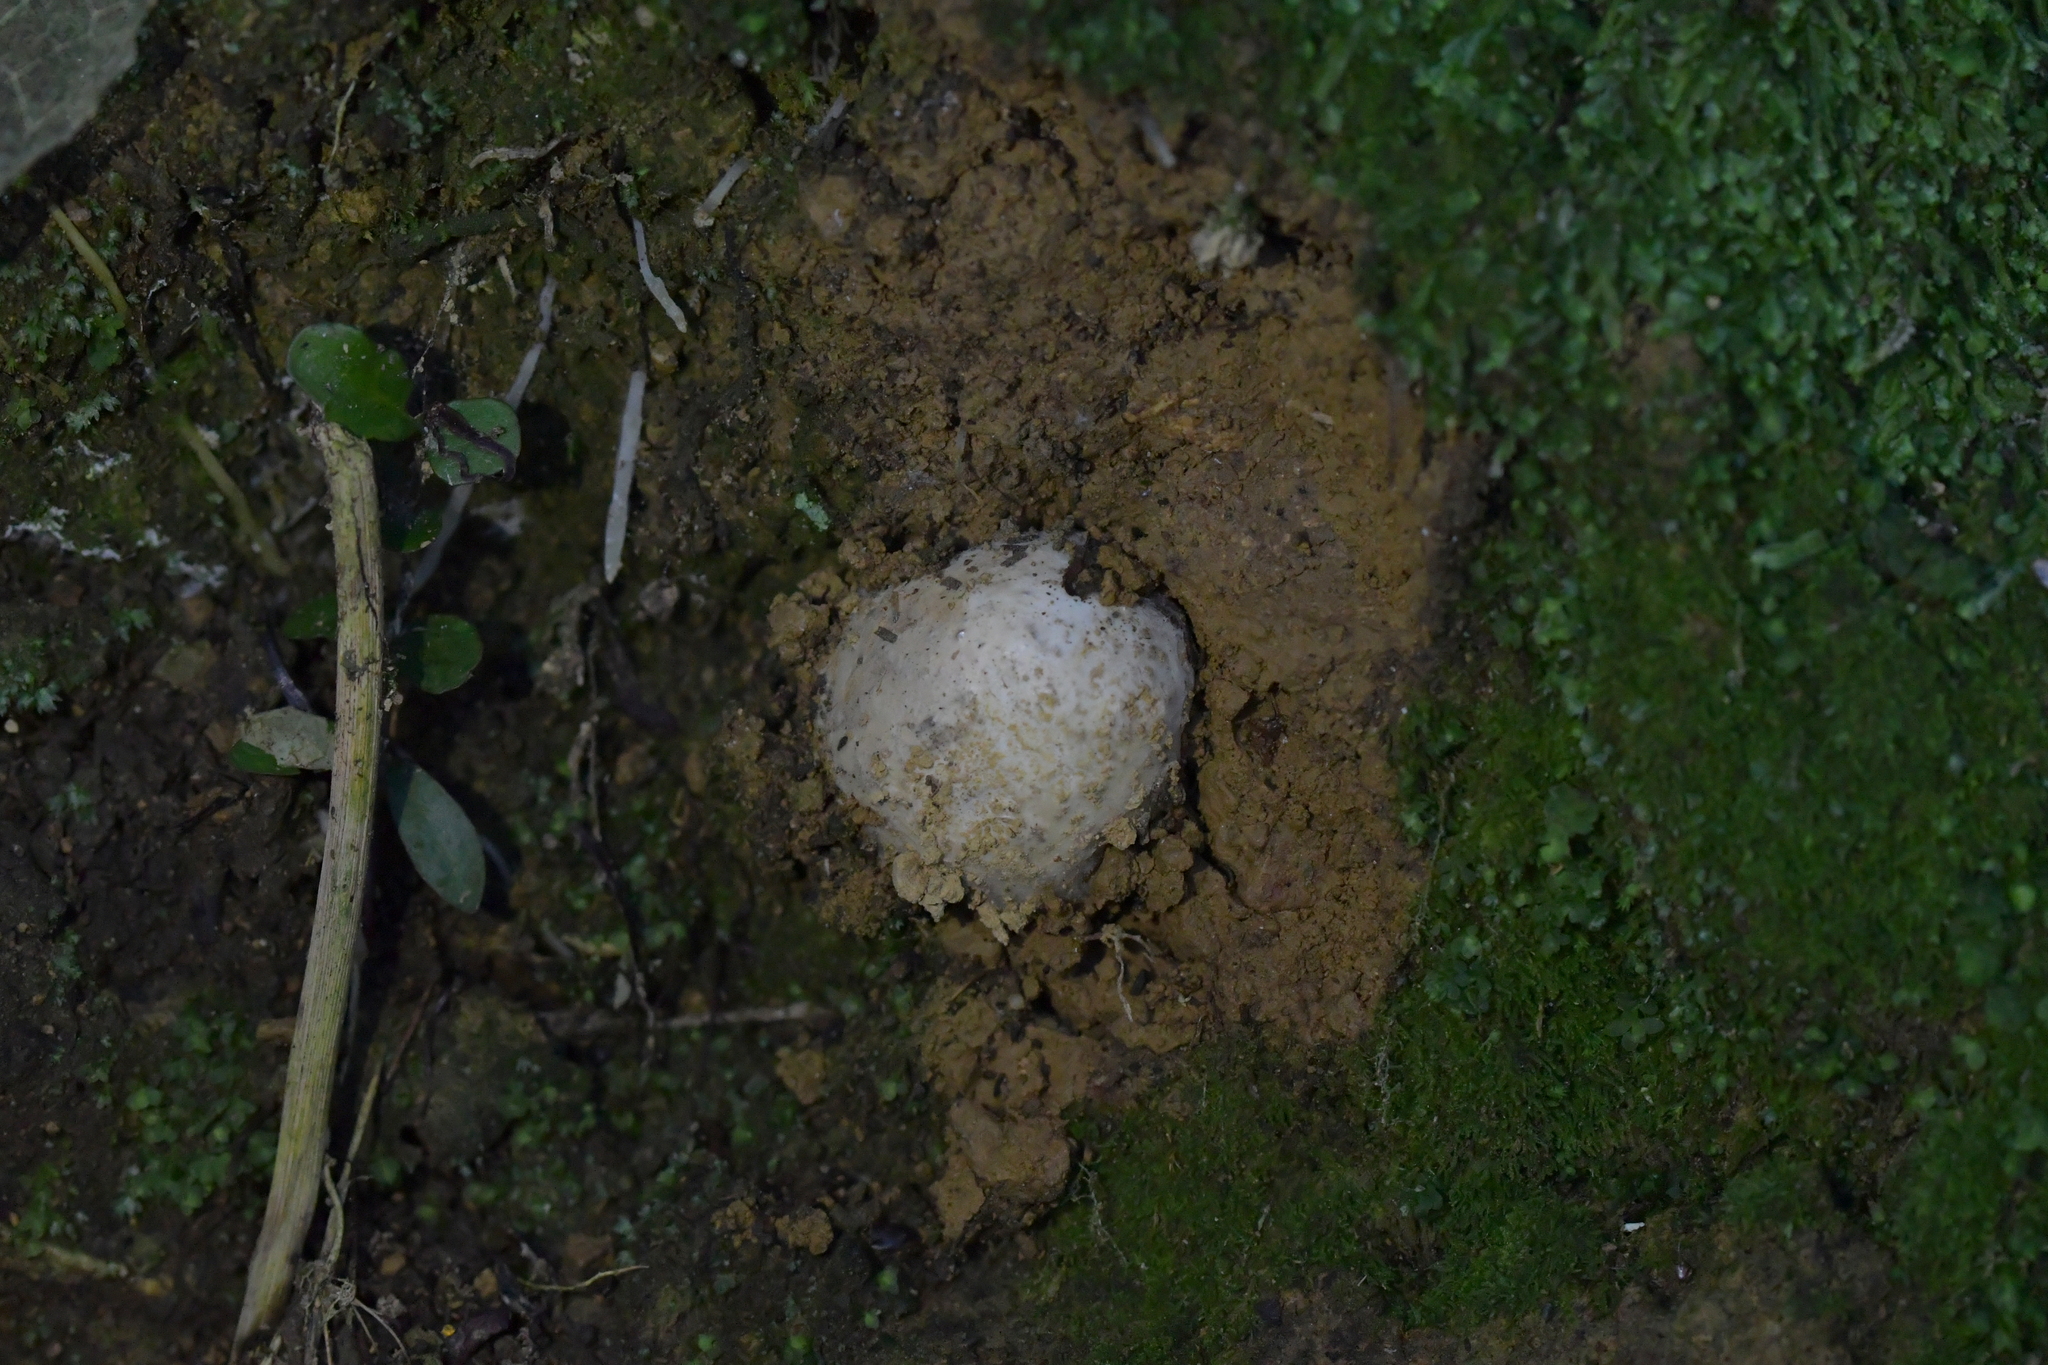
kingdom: Fungi
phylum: Basidiomycota
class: Agaricomycetes
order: Phallales
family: Phallaceae
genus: Ileodictyon
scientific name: Ileodictyon cibarium
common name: Basket fungus
